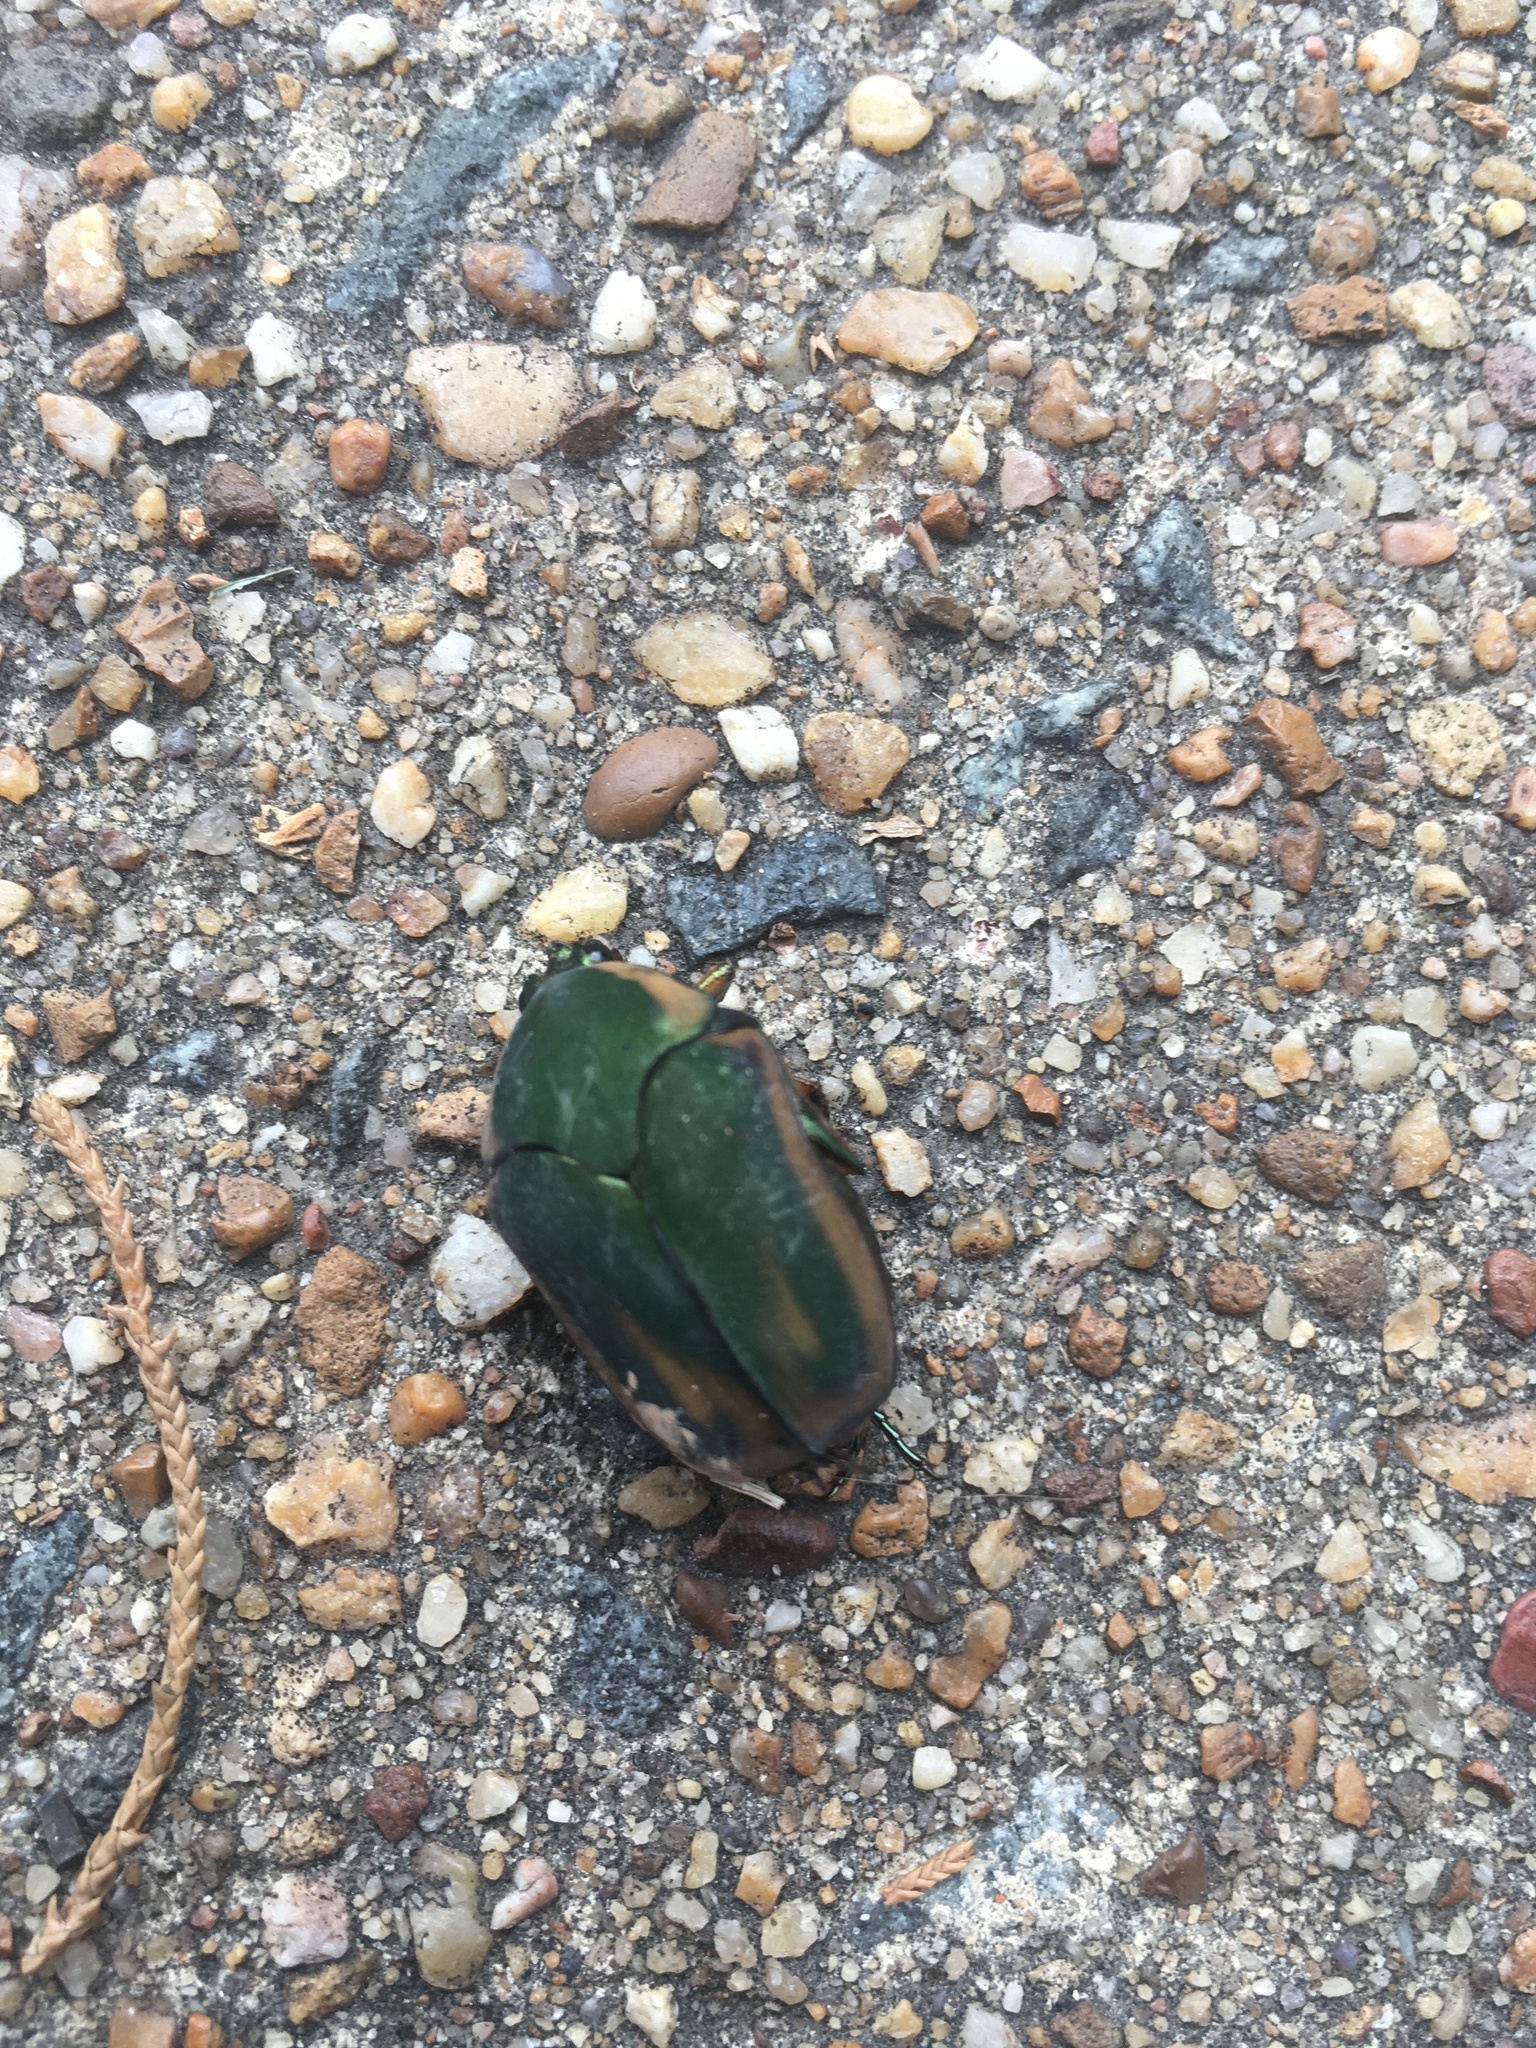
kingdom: Animalia
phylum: Arthropoda
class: Insecta
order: Coleoptera
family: Scarabaeidae
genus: Cotinis
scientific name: Cotinis nitida
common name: Common green june beetle
